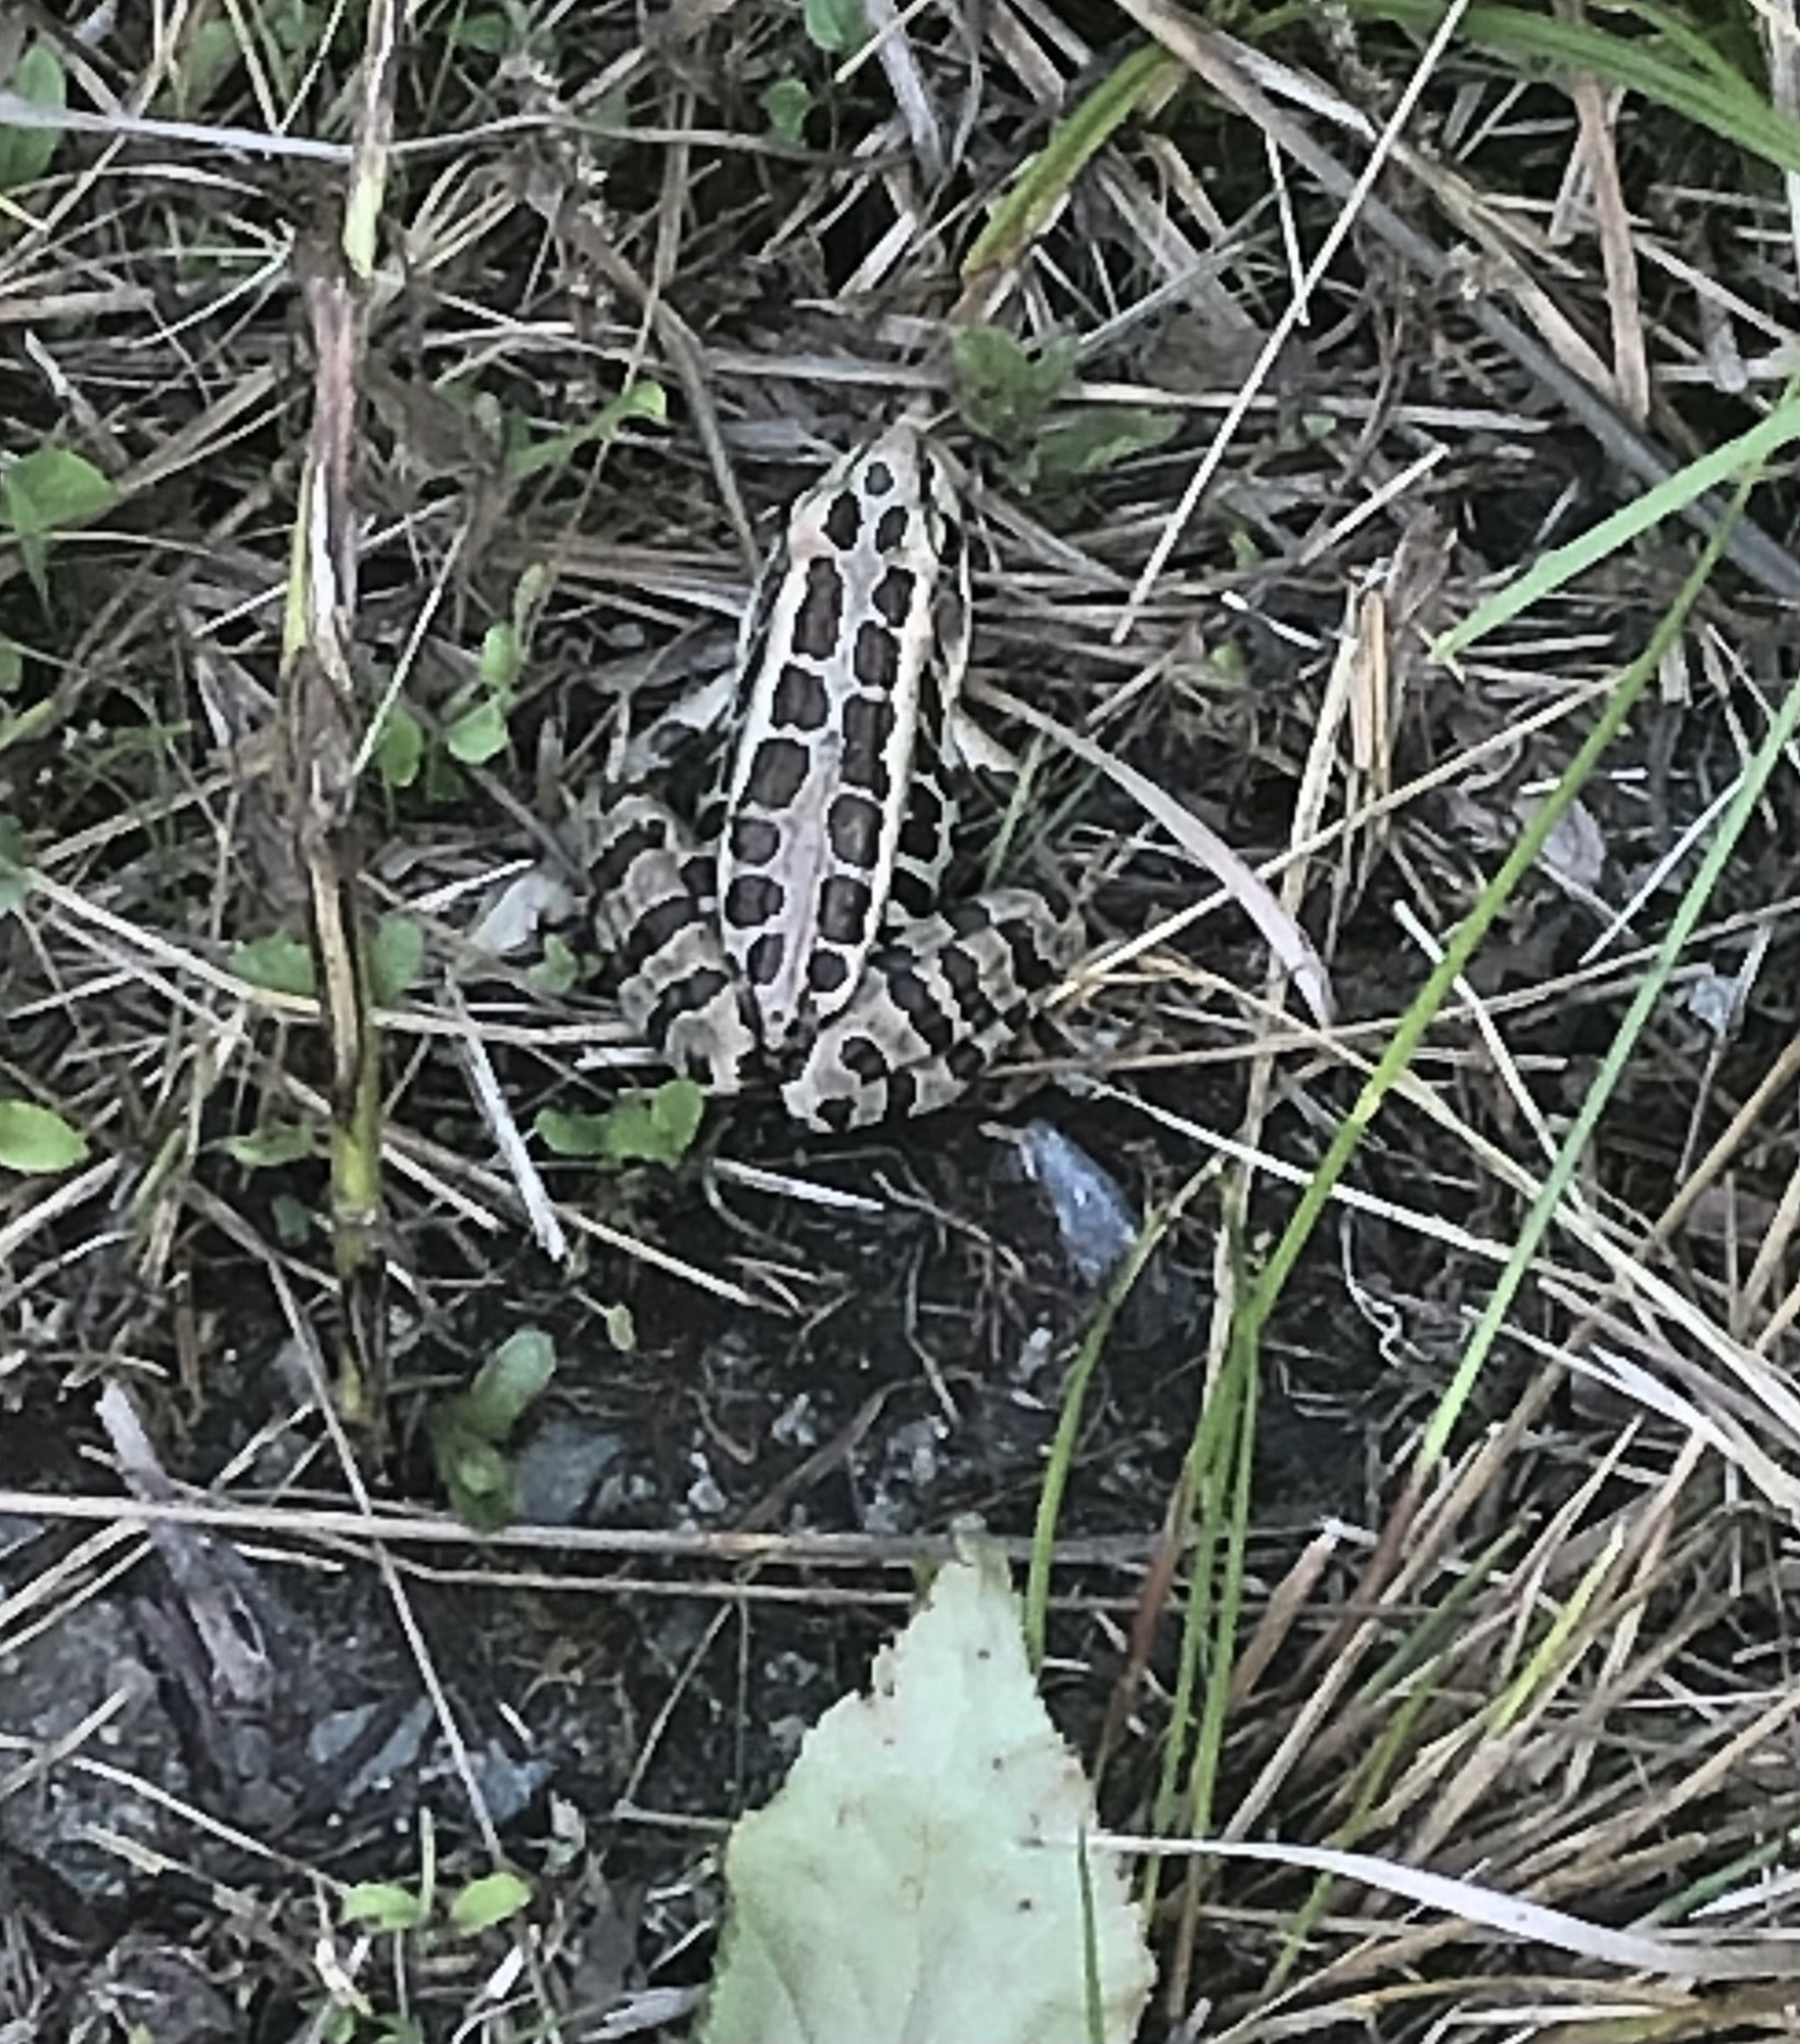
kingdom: Animalia
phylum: Chordata
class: Amphibia
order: Anura
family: Ranidae
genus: Lithobates
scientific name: Lithobates palustris
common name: Pickerel frog
